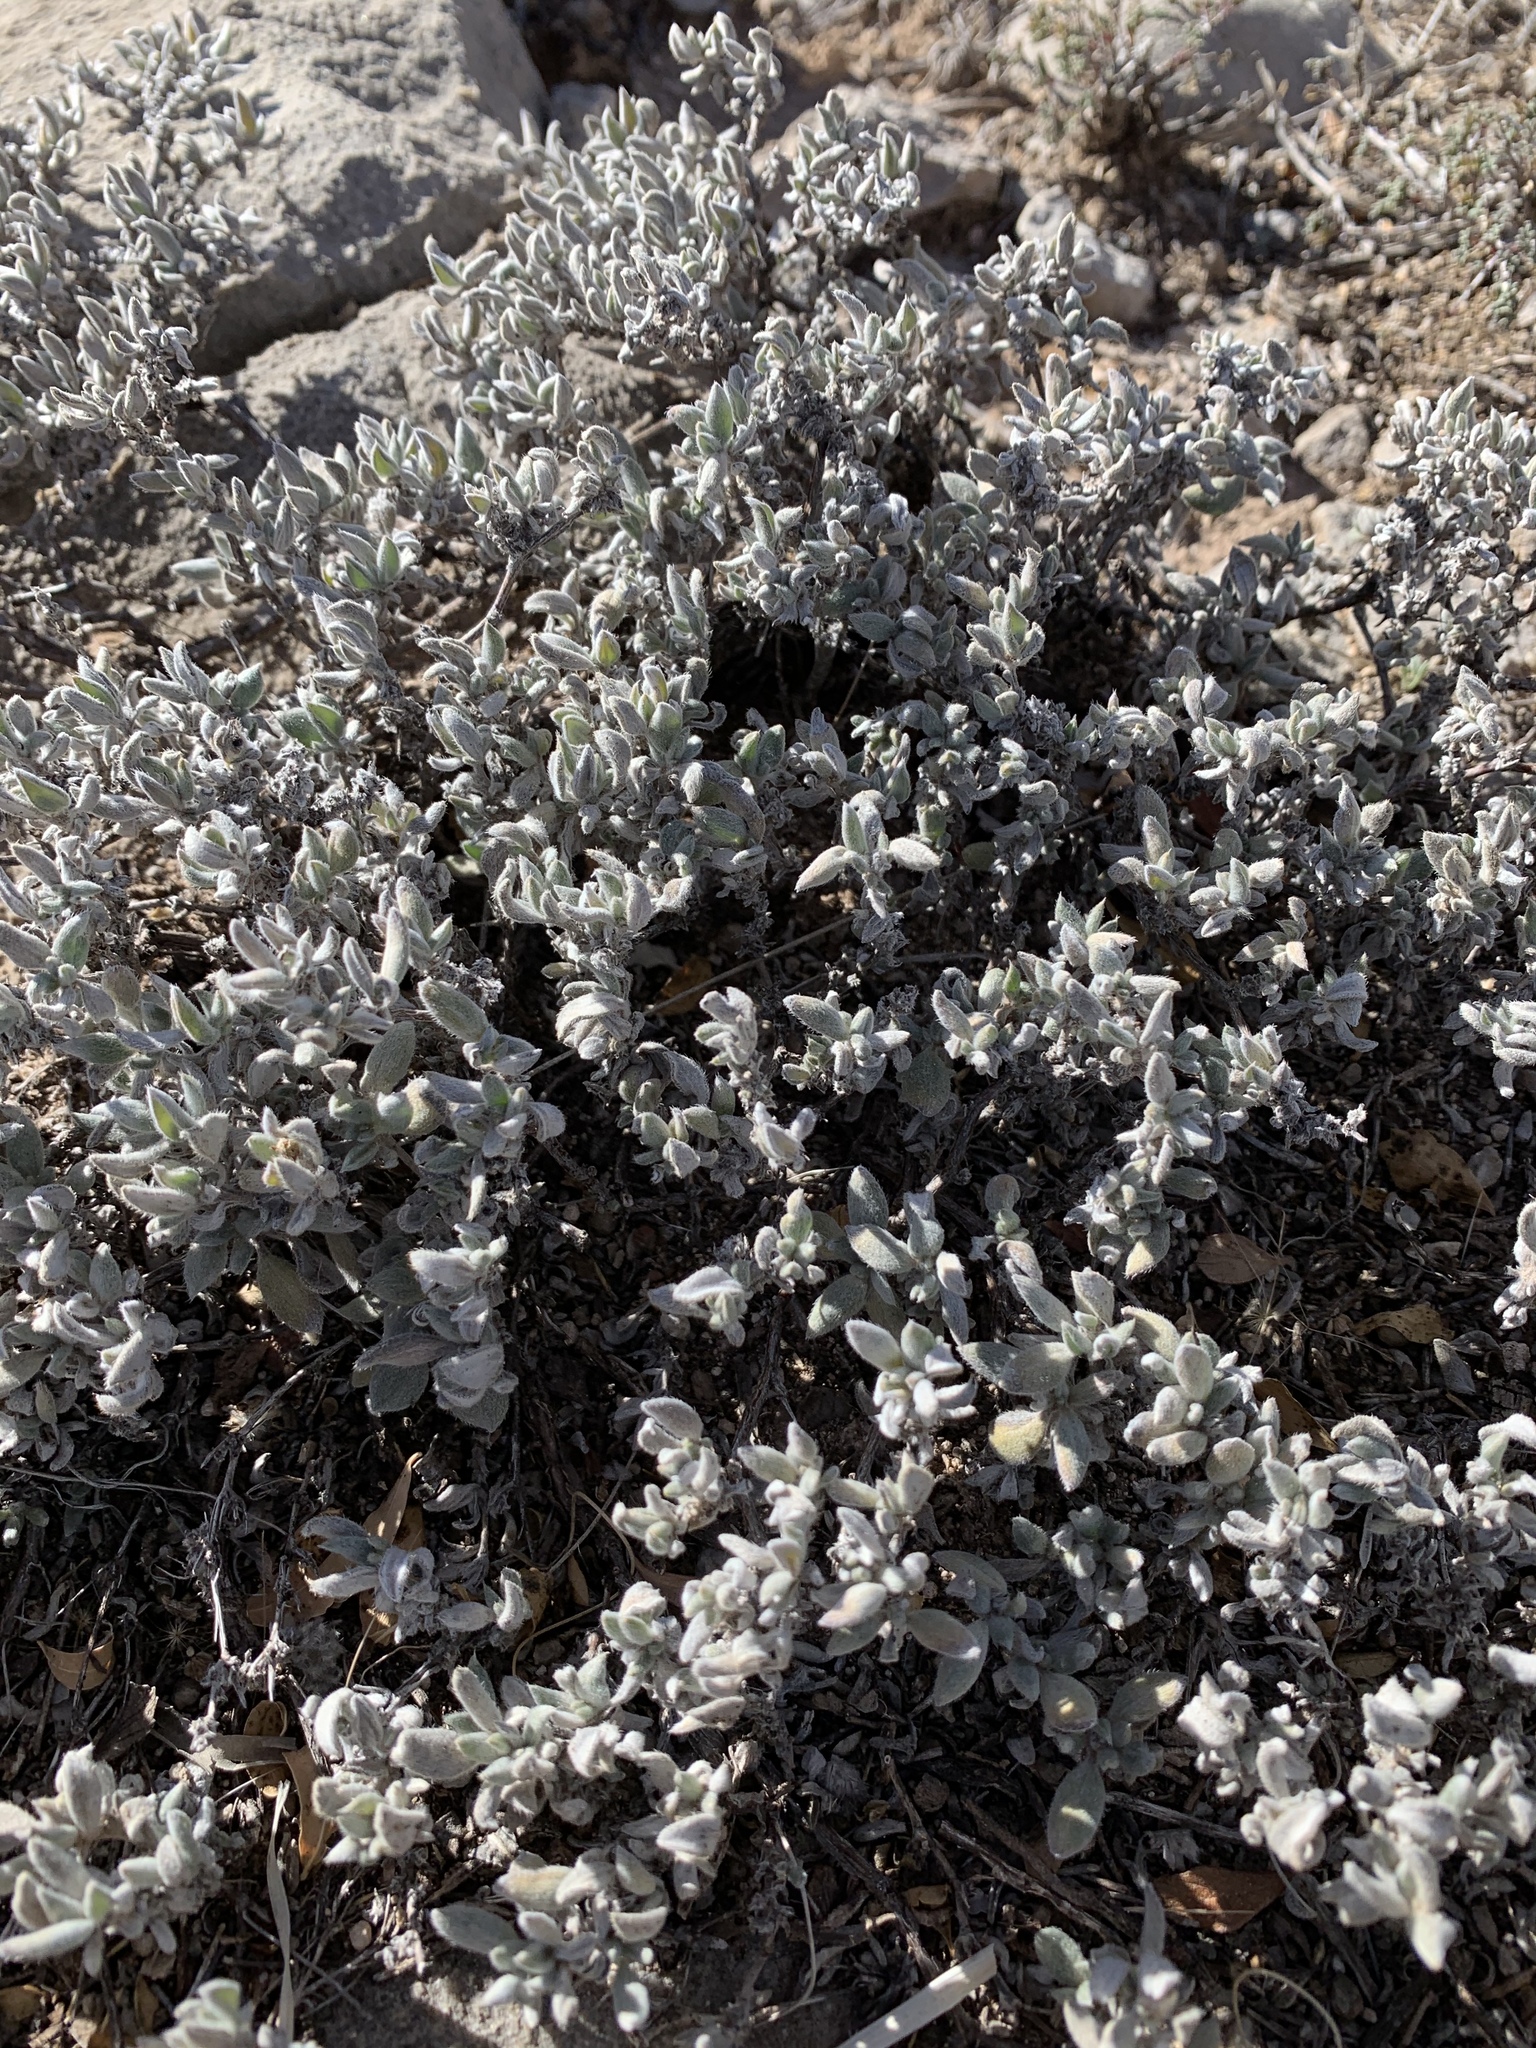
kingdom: Plantae
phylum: Tracheophyta
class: Magnoliopsida
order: Boraginales
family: Ehretiaceae
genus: Tiquilia
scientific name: Tiquilia canescens
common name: Hairy tiquilia
